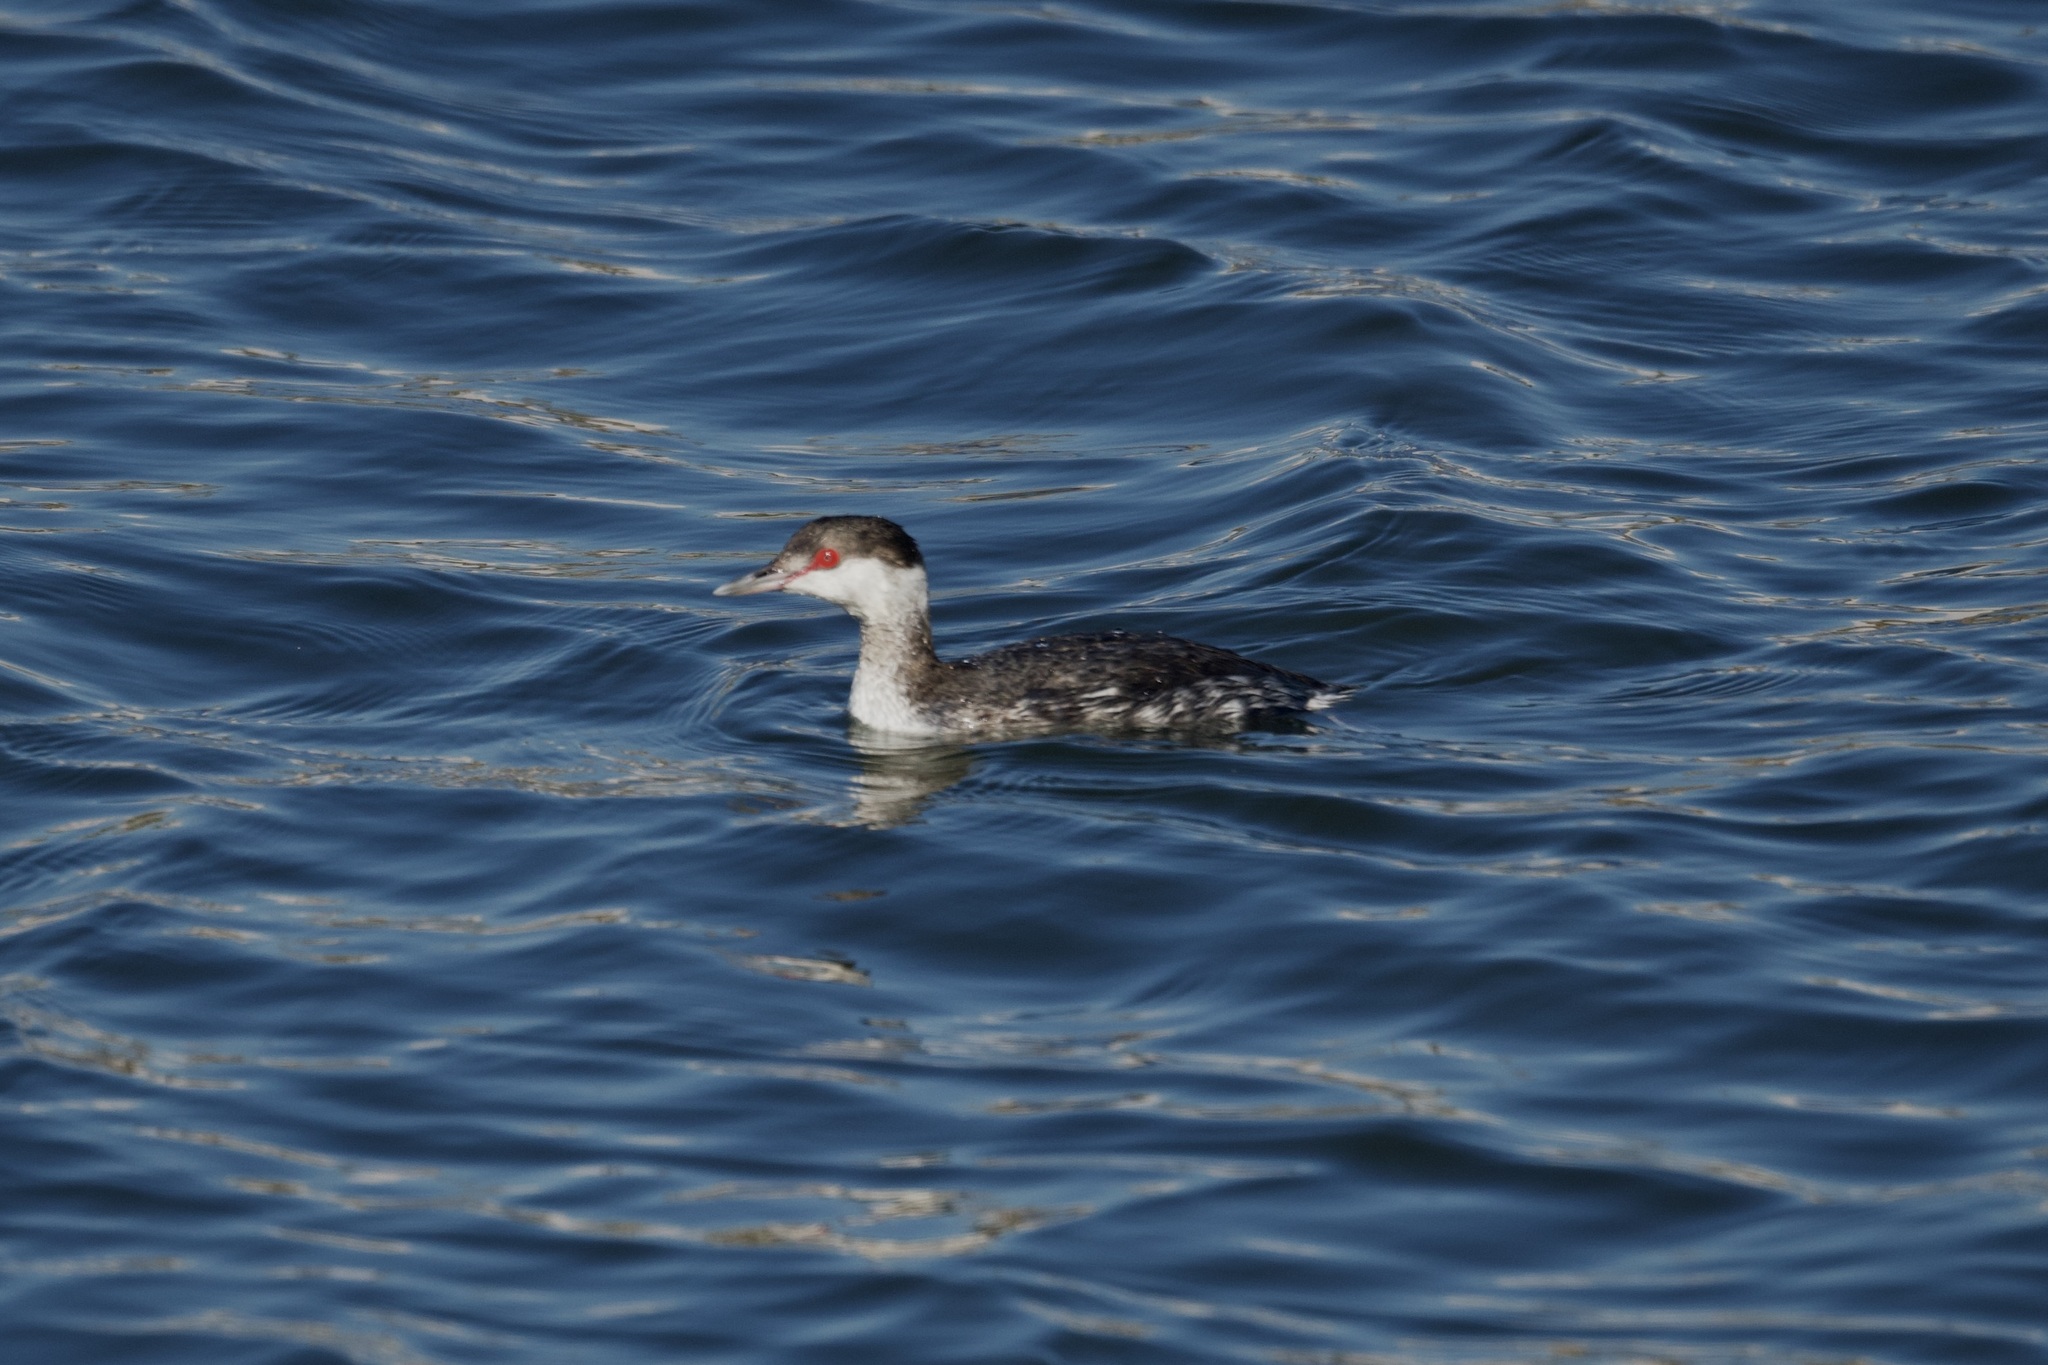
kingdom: Animalia
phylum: Chordata
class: Aves
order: Podicipediformes
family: Podicipedidae
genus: Podiceps
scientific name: Podiceps auritus
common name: Horned grebe
